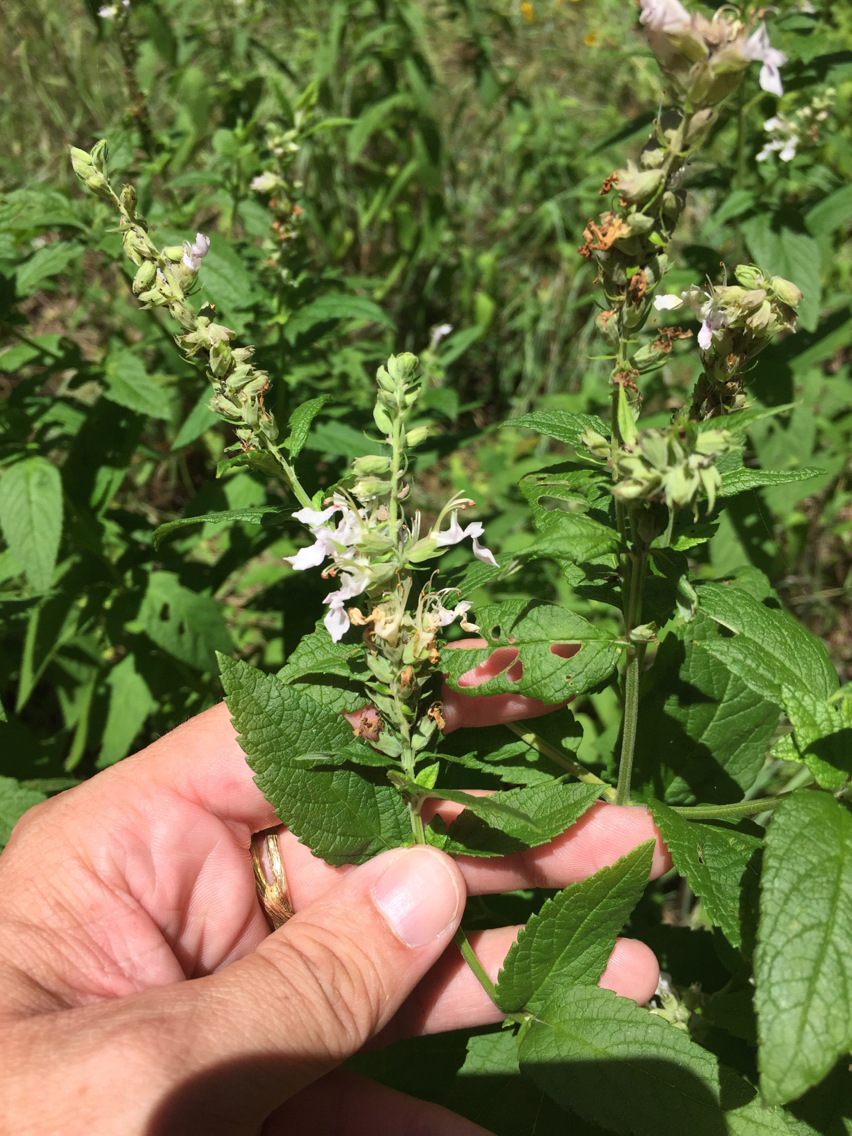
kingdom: Plantae
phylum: Tracheophyta
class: Magnoliopsida
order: Lamiales
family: Lamiaceae
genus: Teucrium
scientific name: Teucrium canadense
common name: American germander
